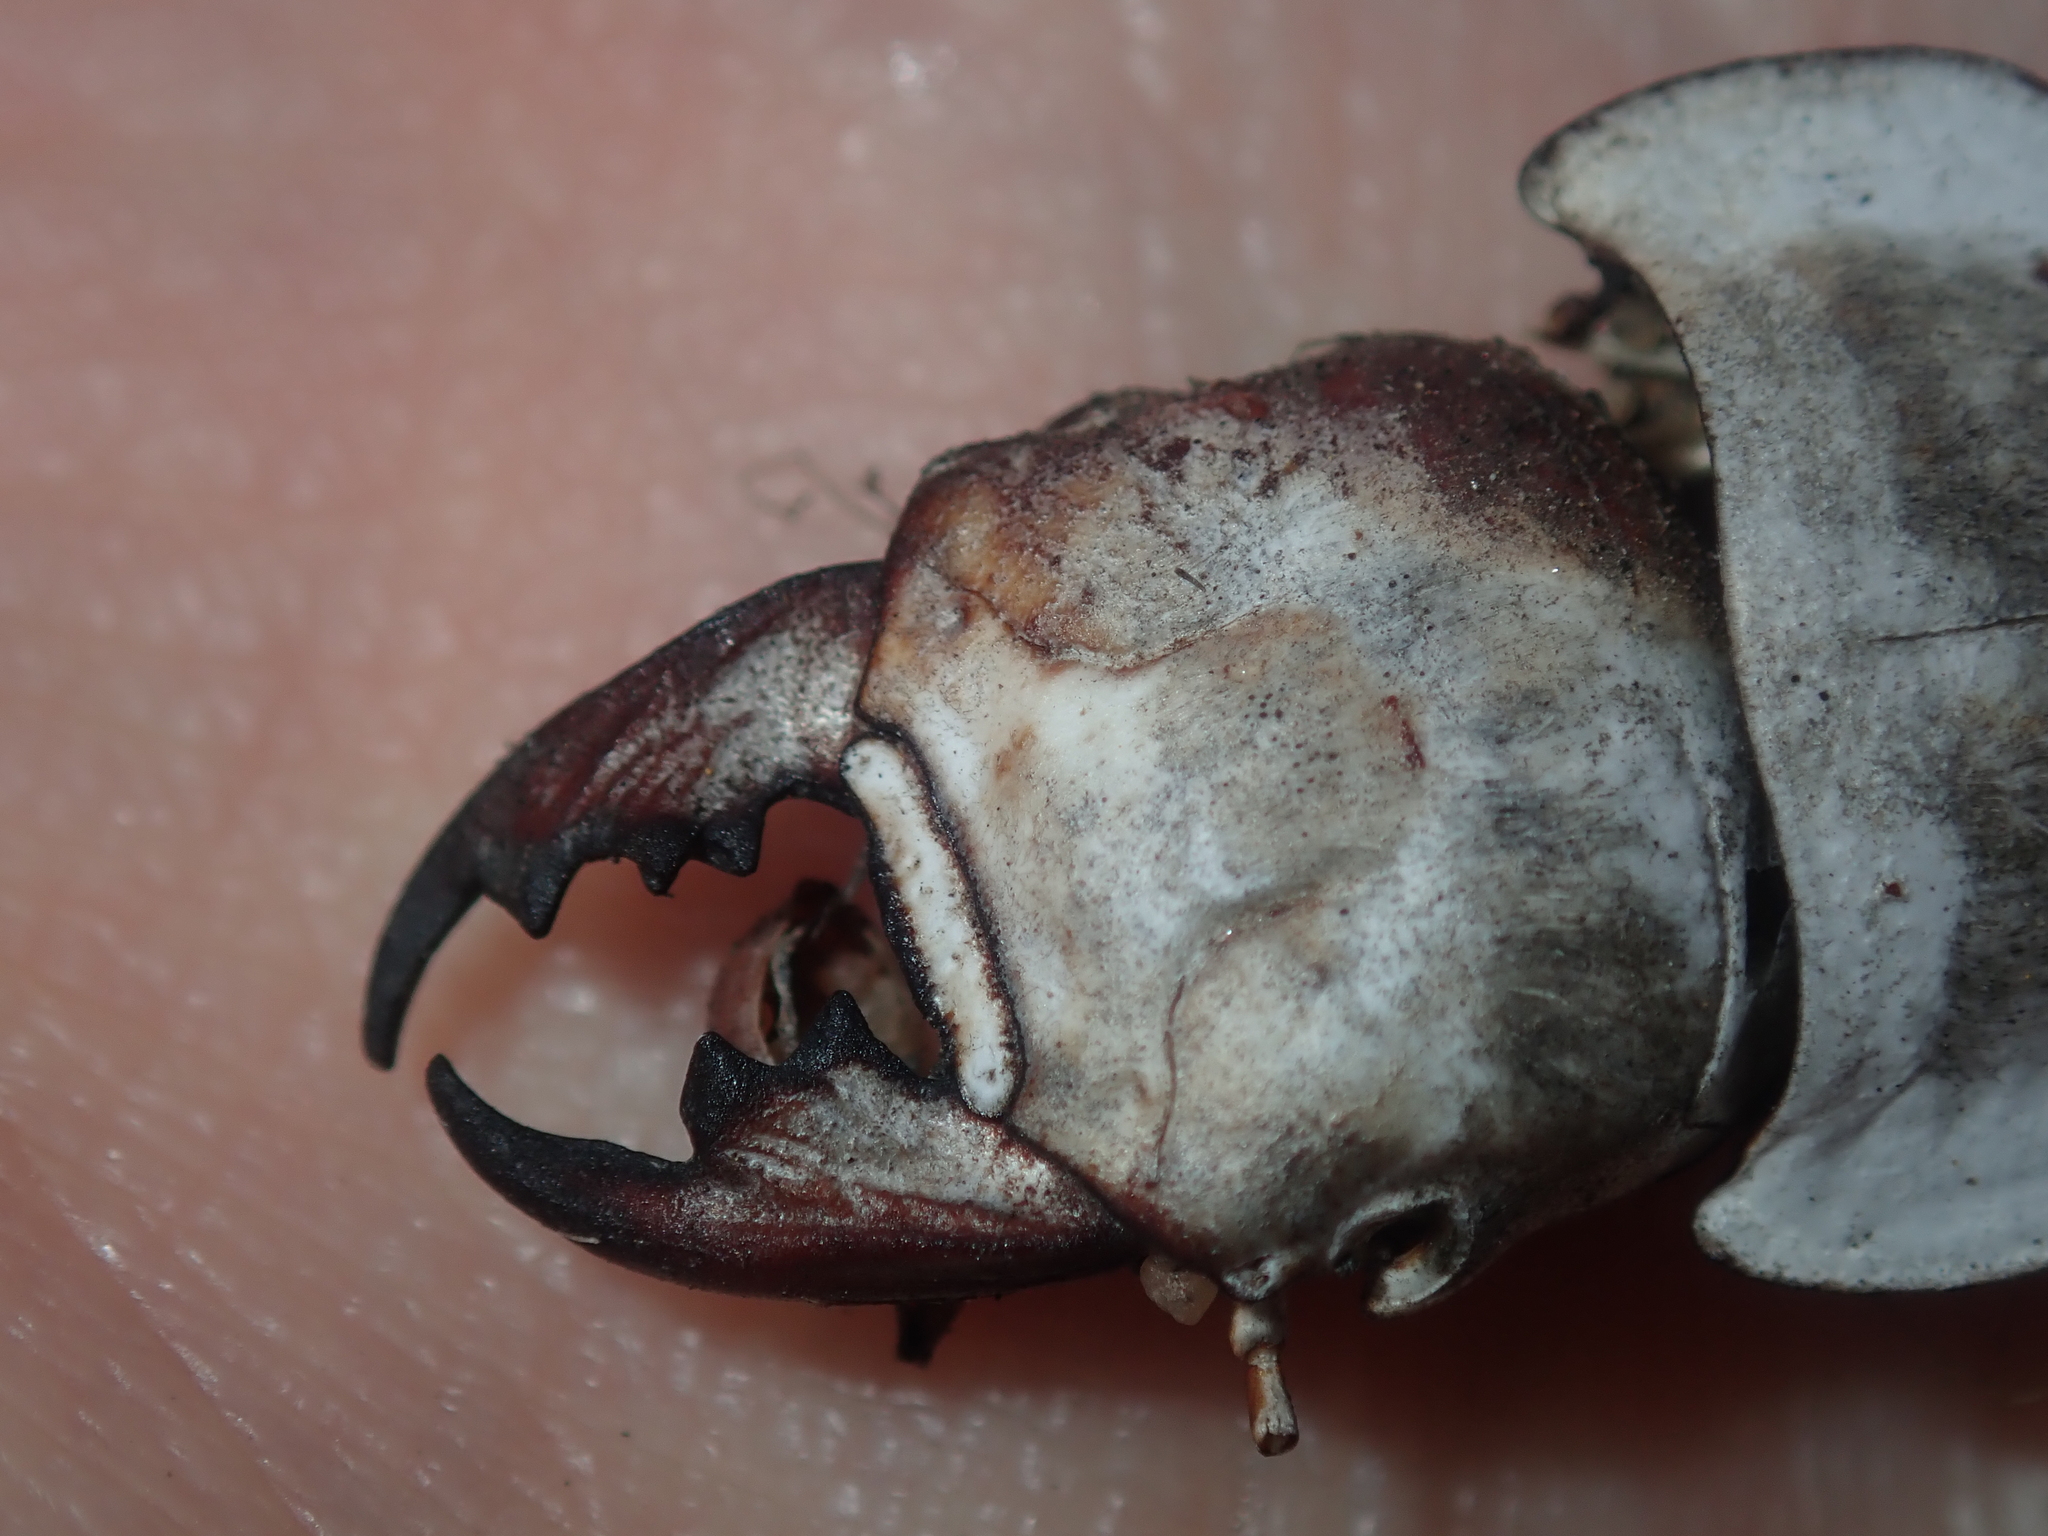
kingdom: Animalia
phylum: Arthropoda
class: Insecta
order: Coleoptera
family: Carabidae
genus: Euryscaphus
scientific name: Euryscaphus obesus
